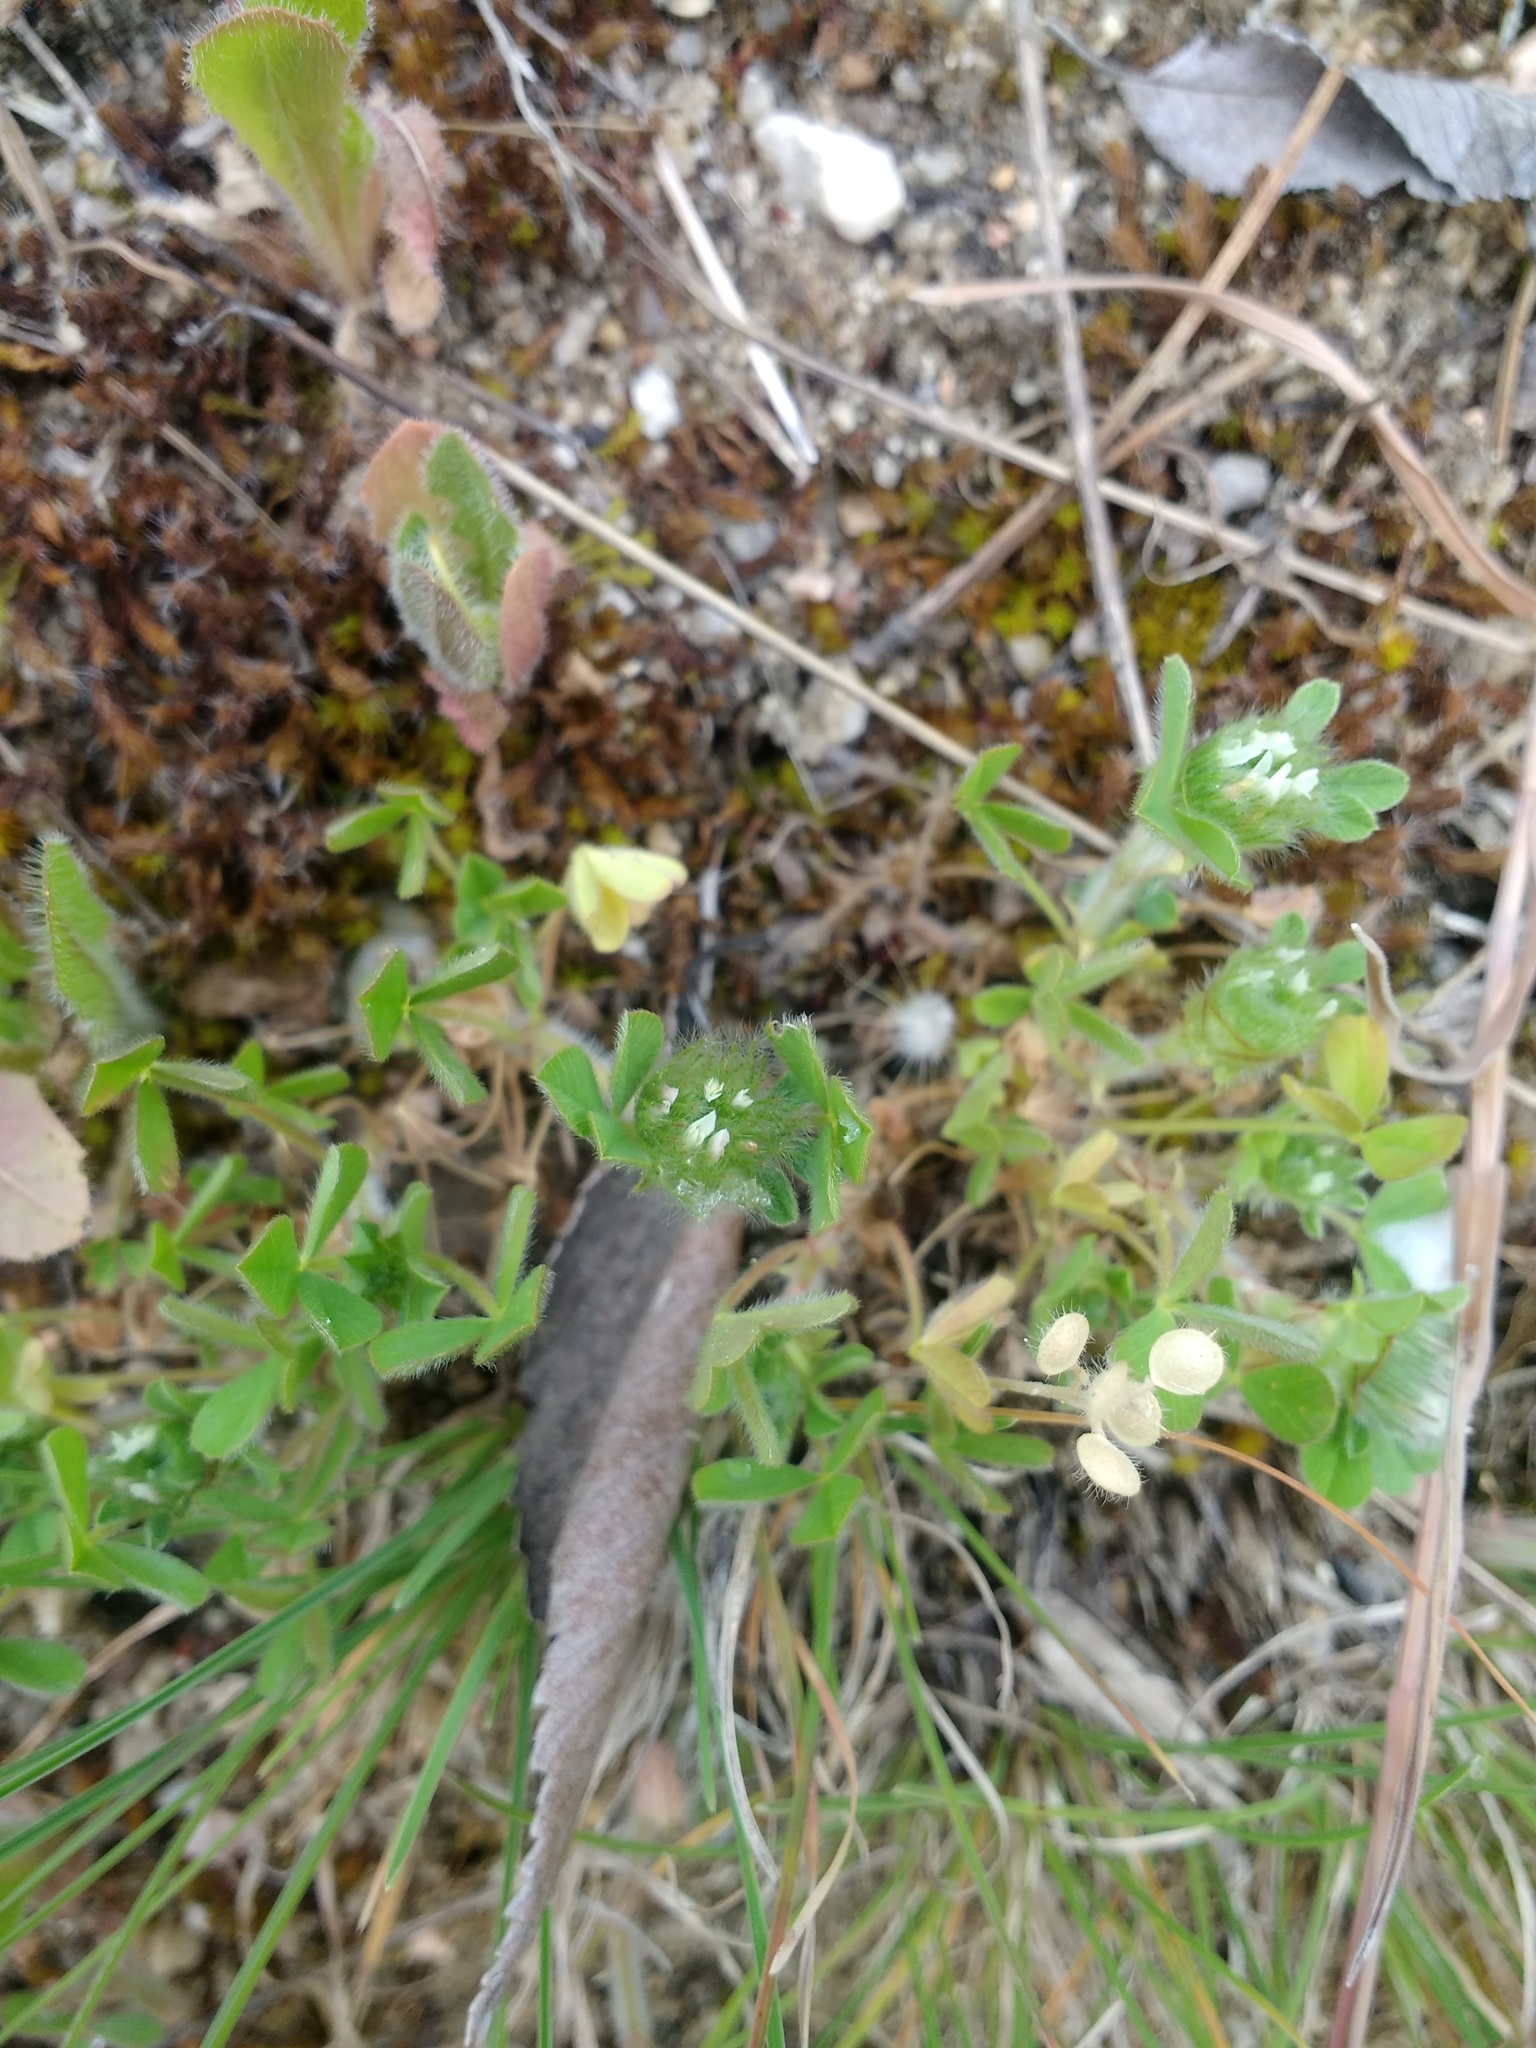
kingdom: Plantae
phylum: Tracheophyta
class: Magnoliopsida
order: Fabales
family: Fabaceae
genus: Trifolium
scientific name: Trifolium cherleri
